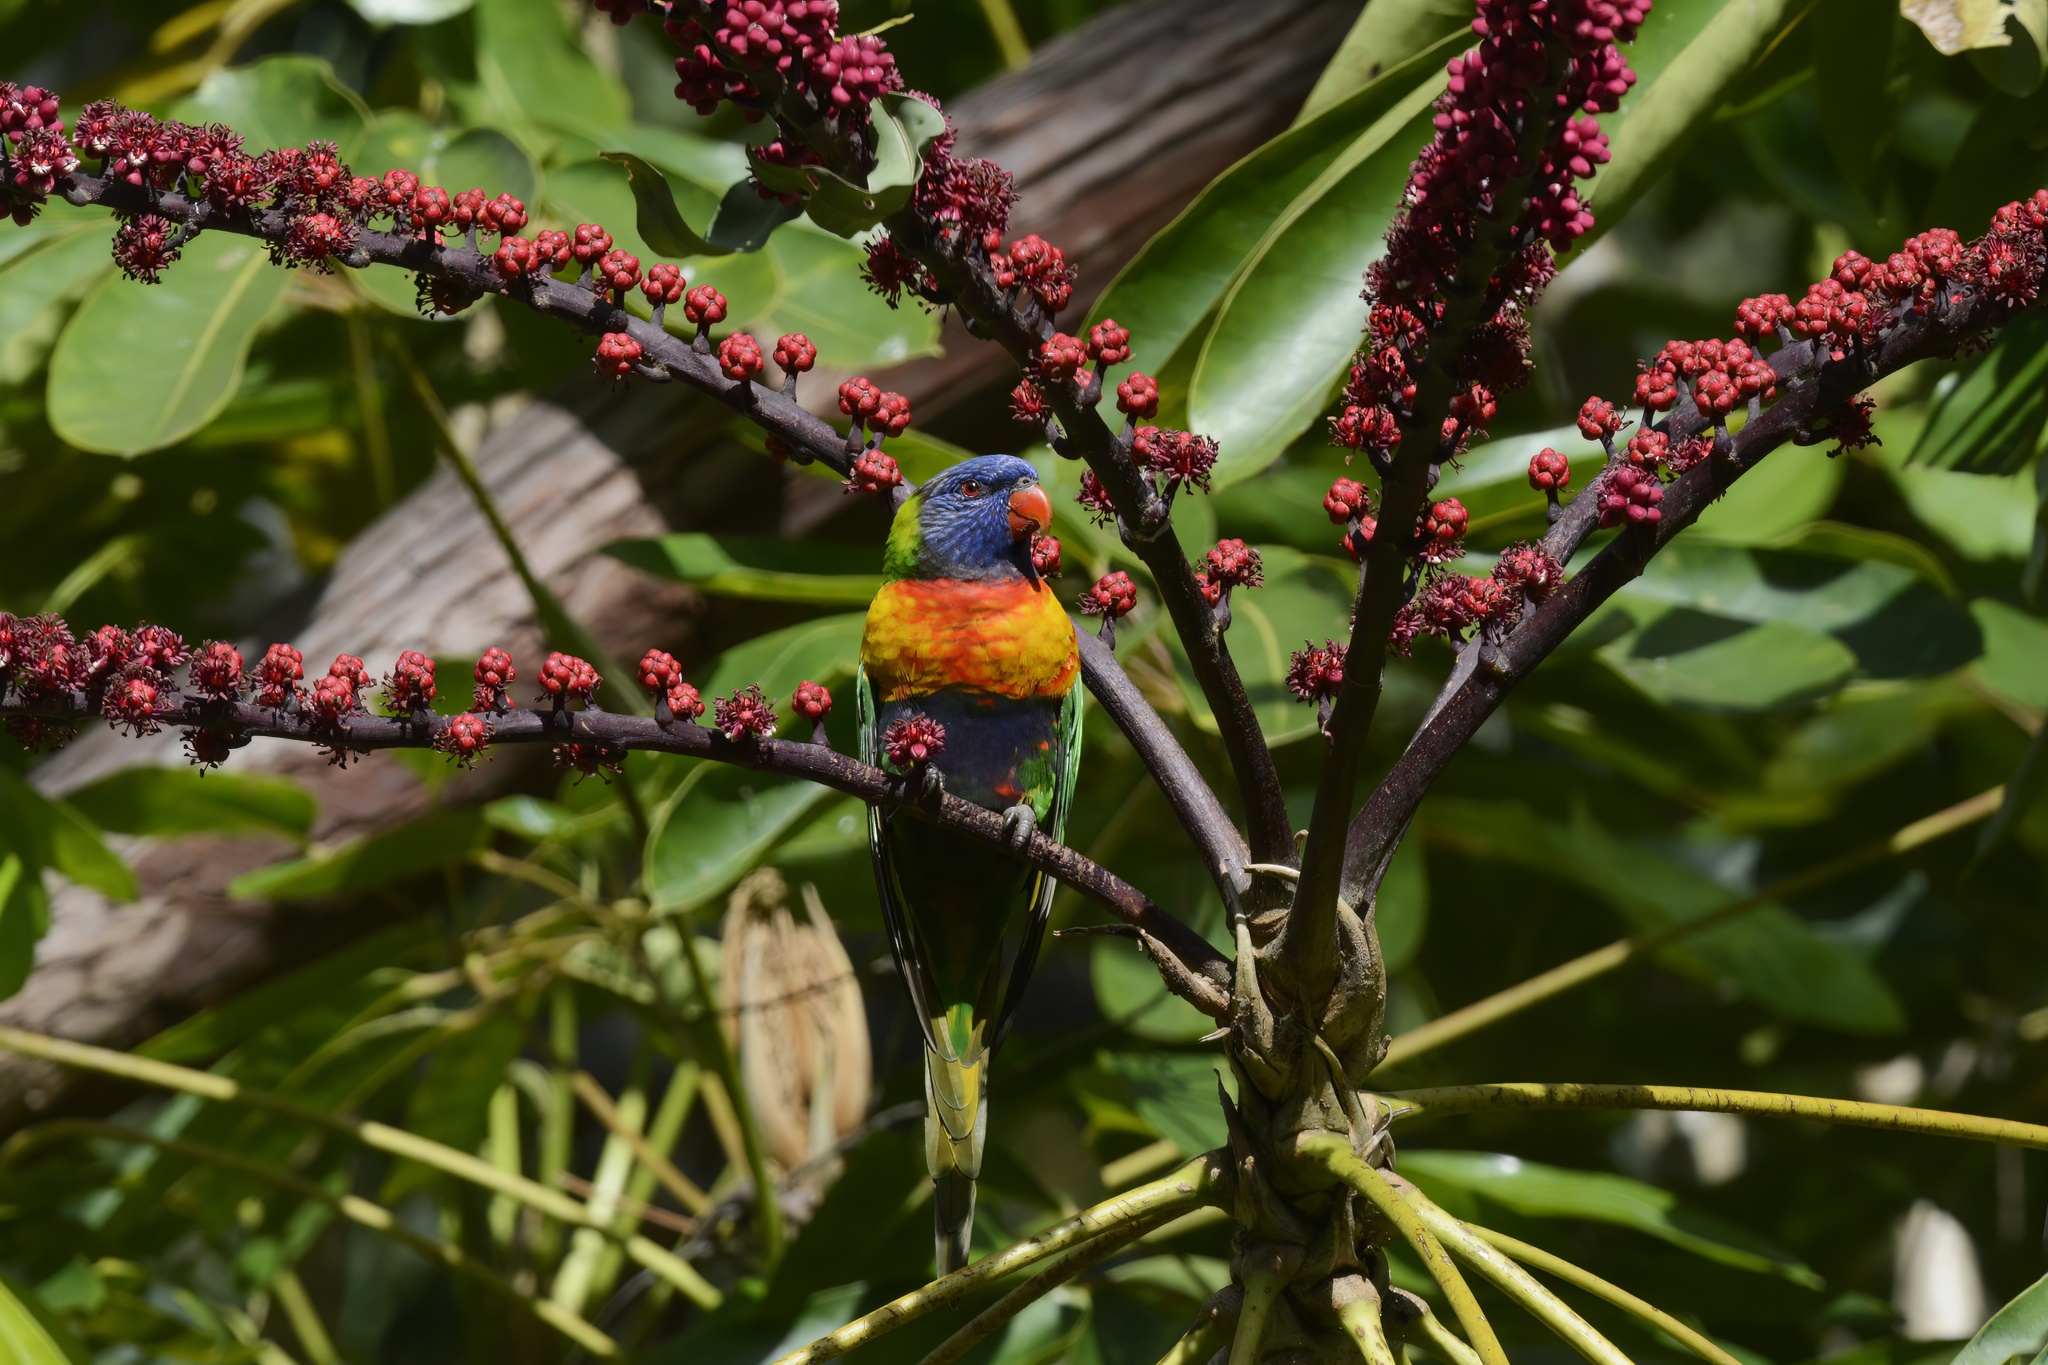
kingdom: Animalia
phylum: Chordata
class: Aves
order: Psittaciformes
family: Psittacidae
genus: Trichoglossus
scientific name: Trichoglossus haematodus
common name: Coconut lorikeet
